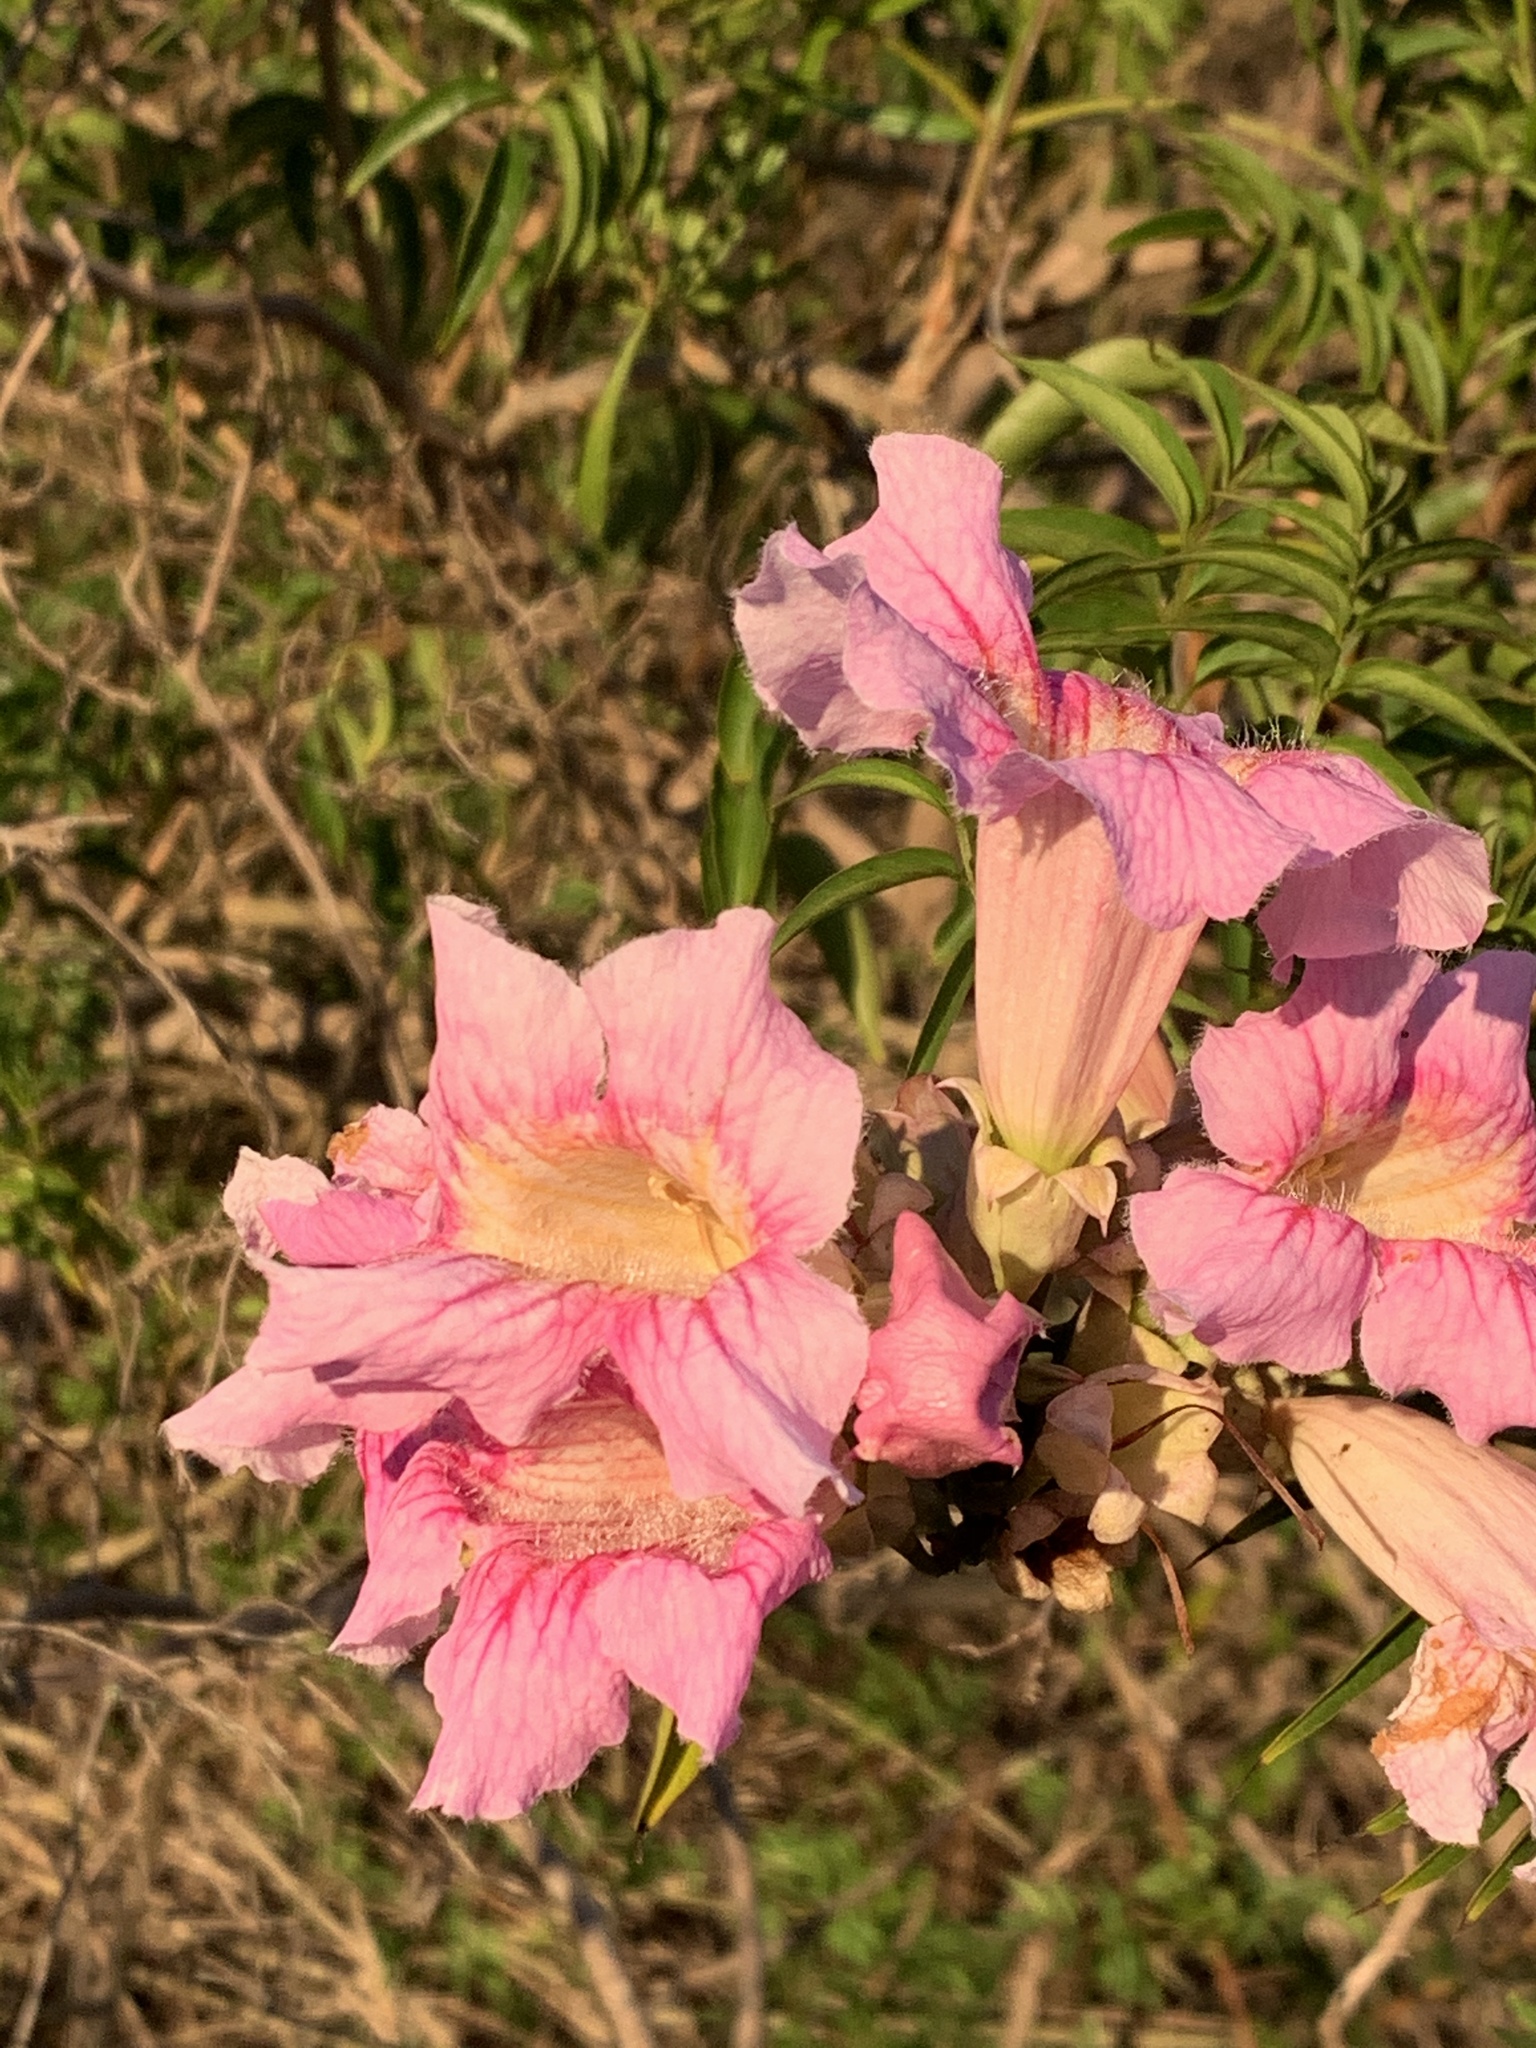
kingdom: Plantae
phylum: Tracheophyta
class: Magnoliopsida
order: Lamiales
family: Bignoniaceae
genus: Podranea
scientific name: Podranea ricasoliana
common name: Zimbabwe creeper
